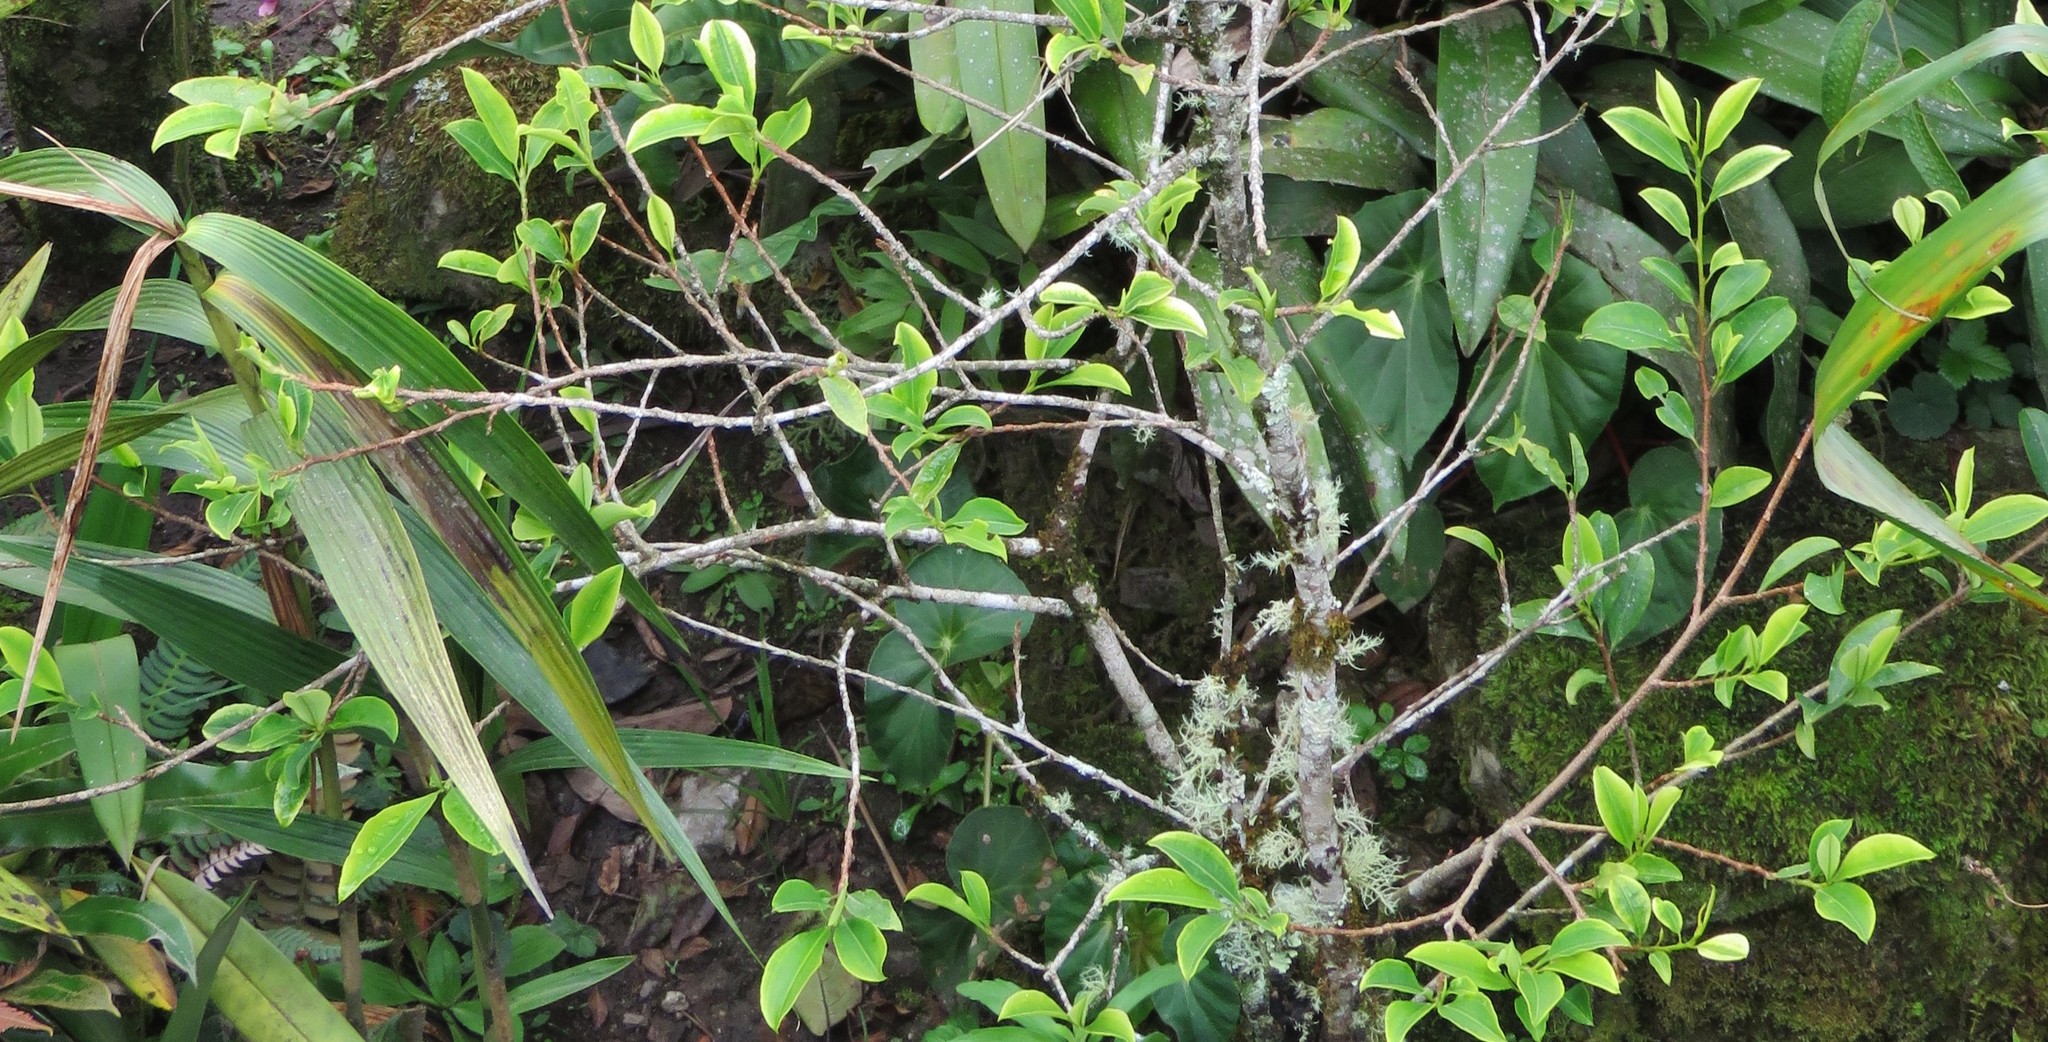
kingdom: Plantae
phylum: Tracheophyta
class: Magnoliopsida
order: Malpighiales
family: Erythroxylaceae
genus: Erythroxylum
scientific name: Erythroxylum coca
